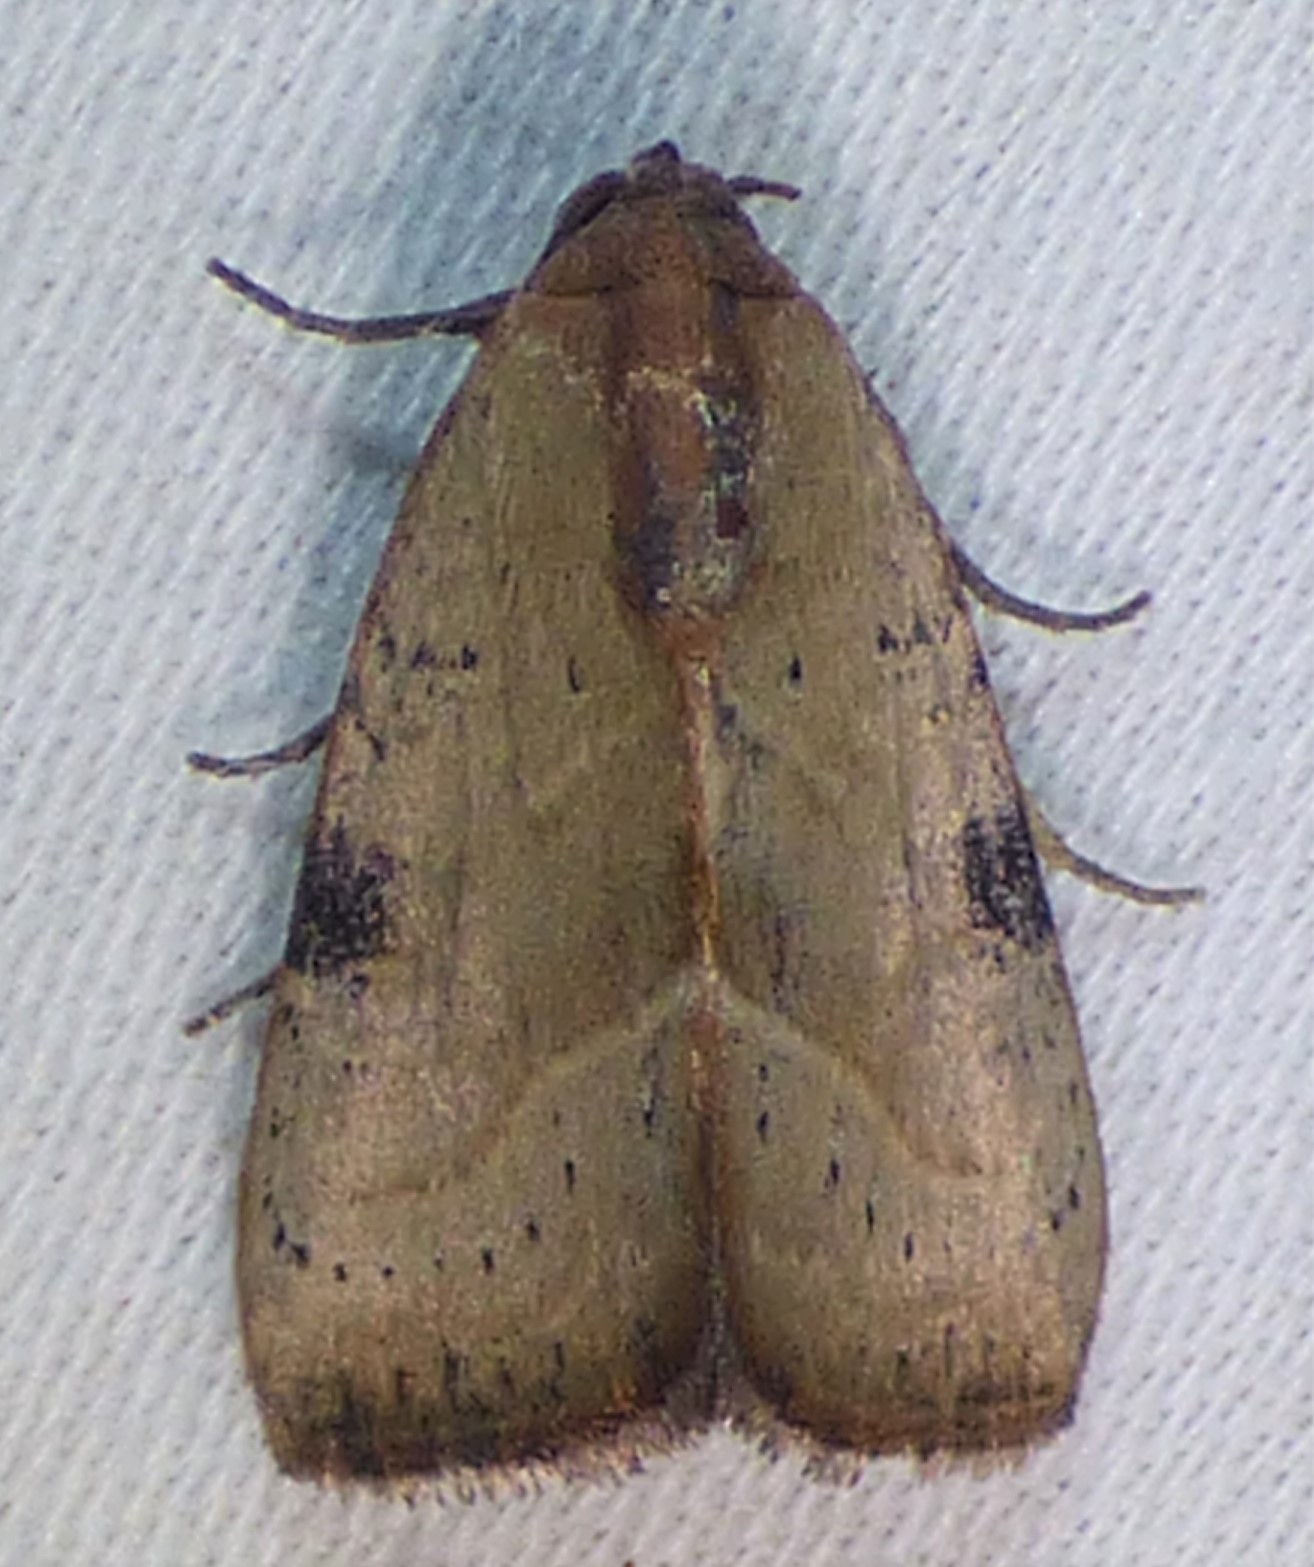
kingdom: Animalia
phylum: Arthropoda
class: Insecta
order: Lepidoptera
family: Noctuidae
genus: Galgula
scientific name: Galgula partita
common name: Wedgeling
